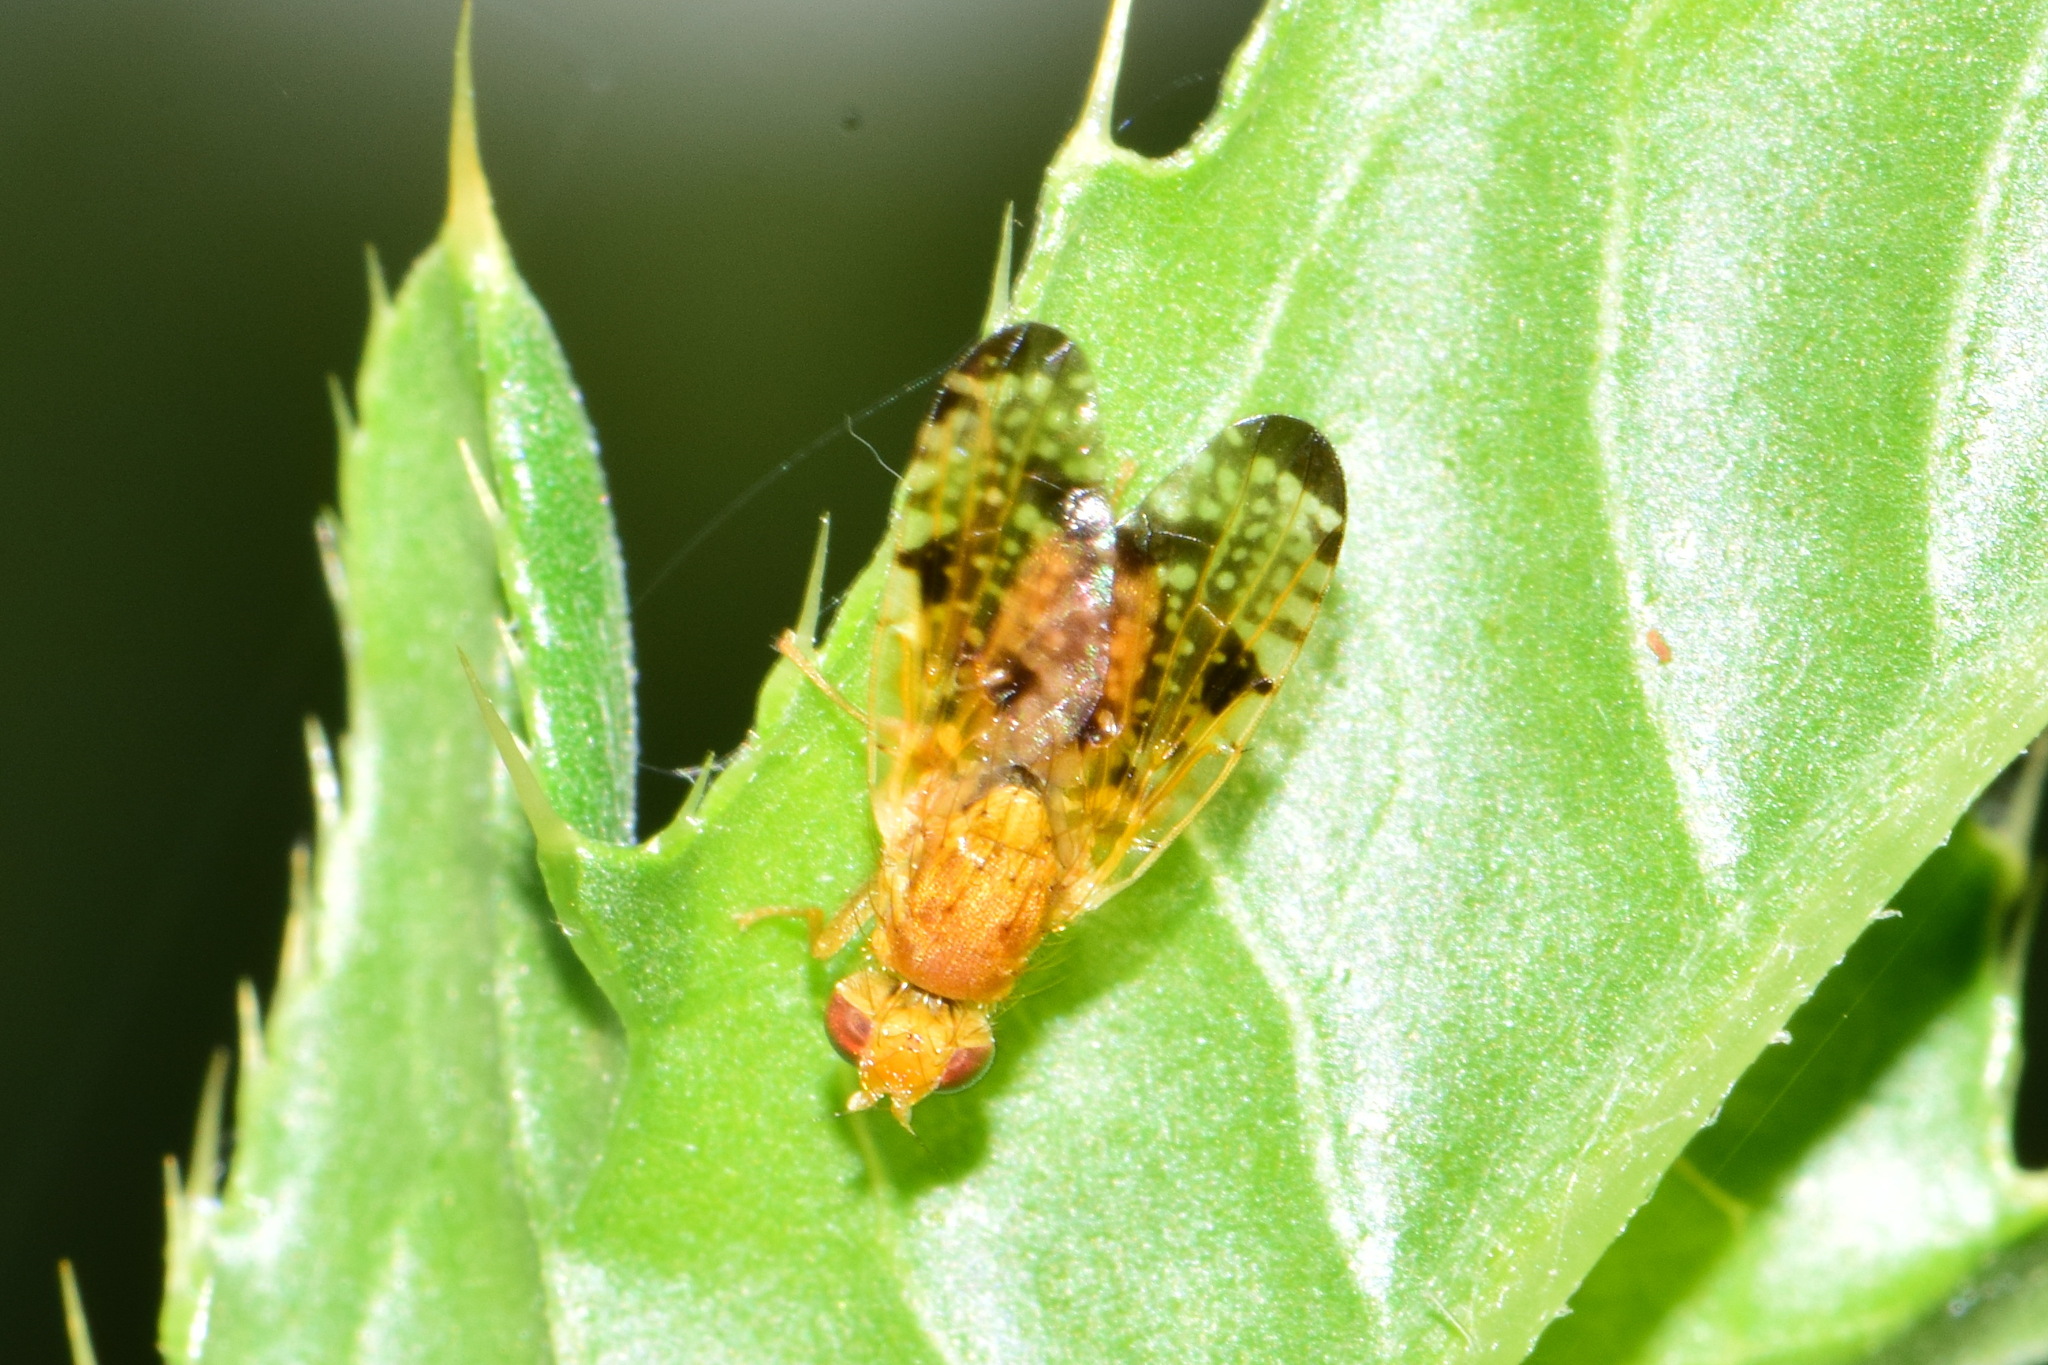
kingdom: Animalia
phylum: Arthropoda
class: Insecta
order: Diptera
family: Tephritidae
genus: Xyphosia
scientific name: Xyphosia miliaria
